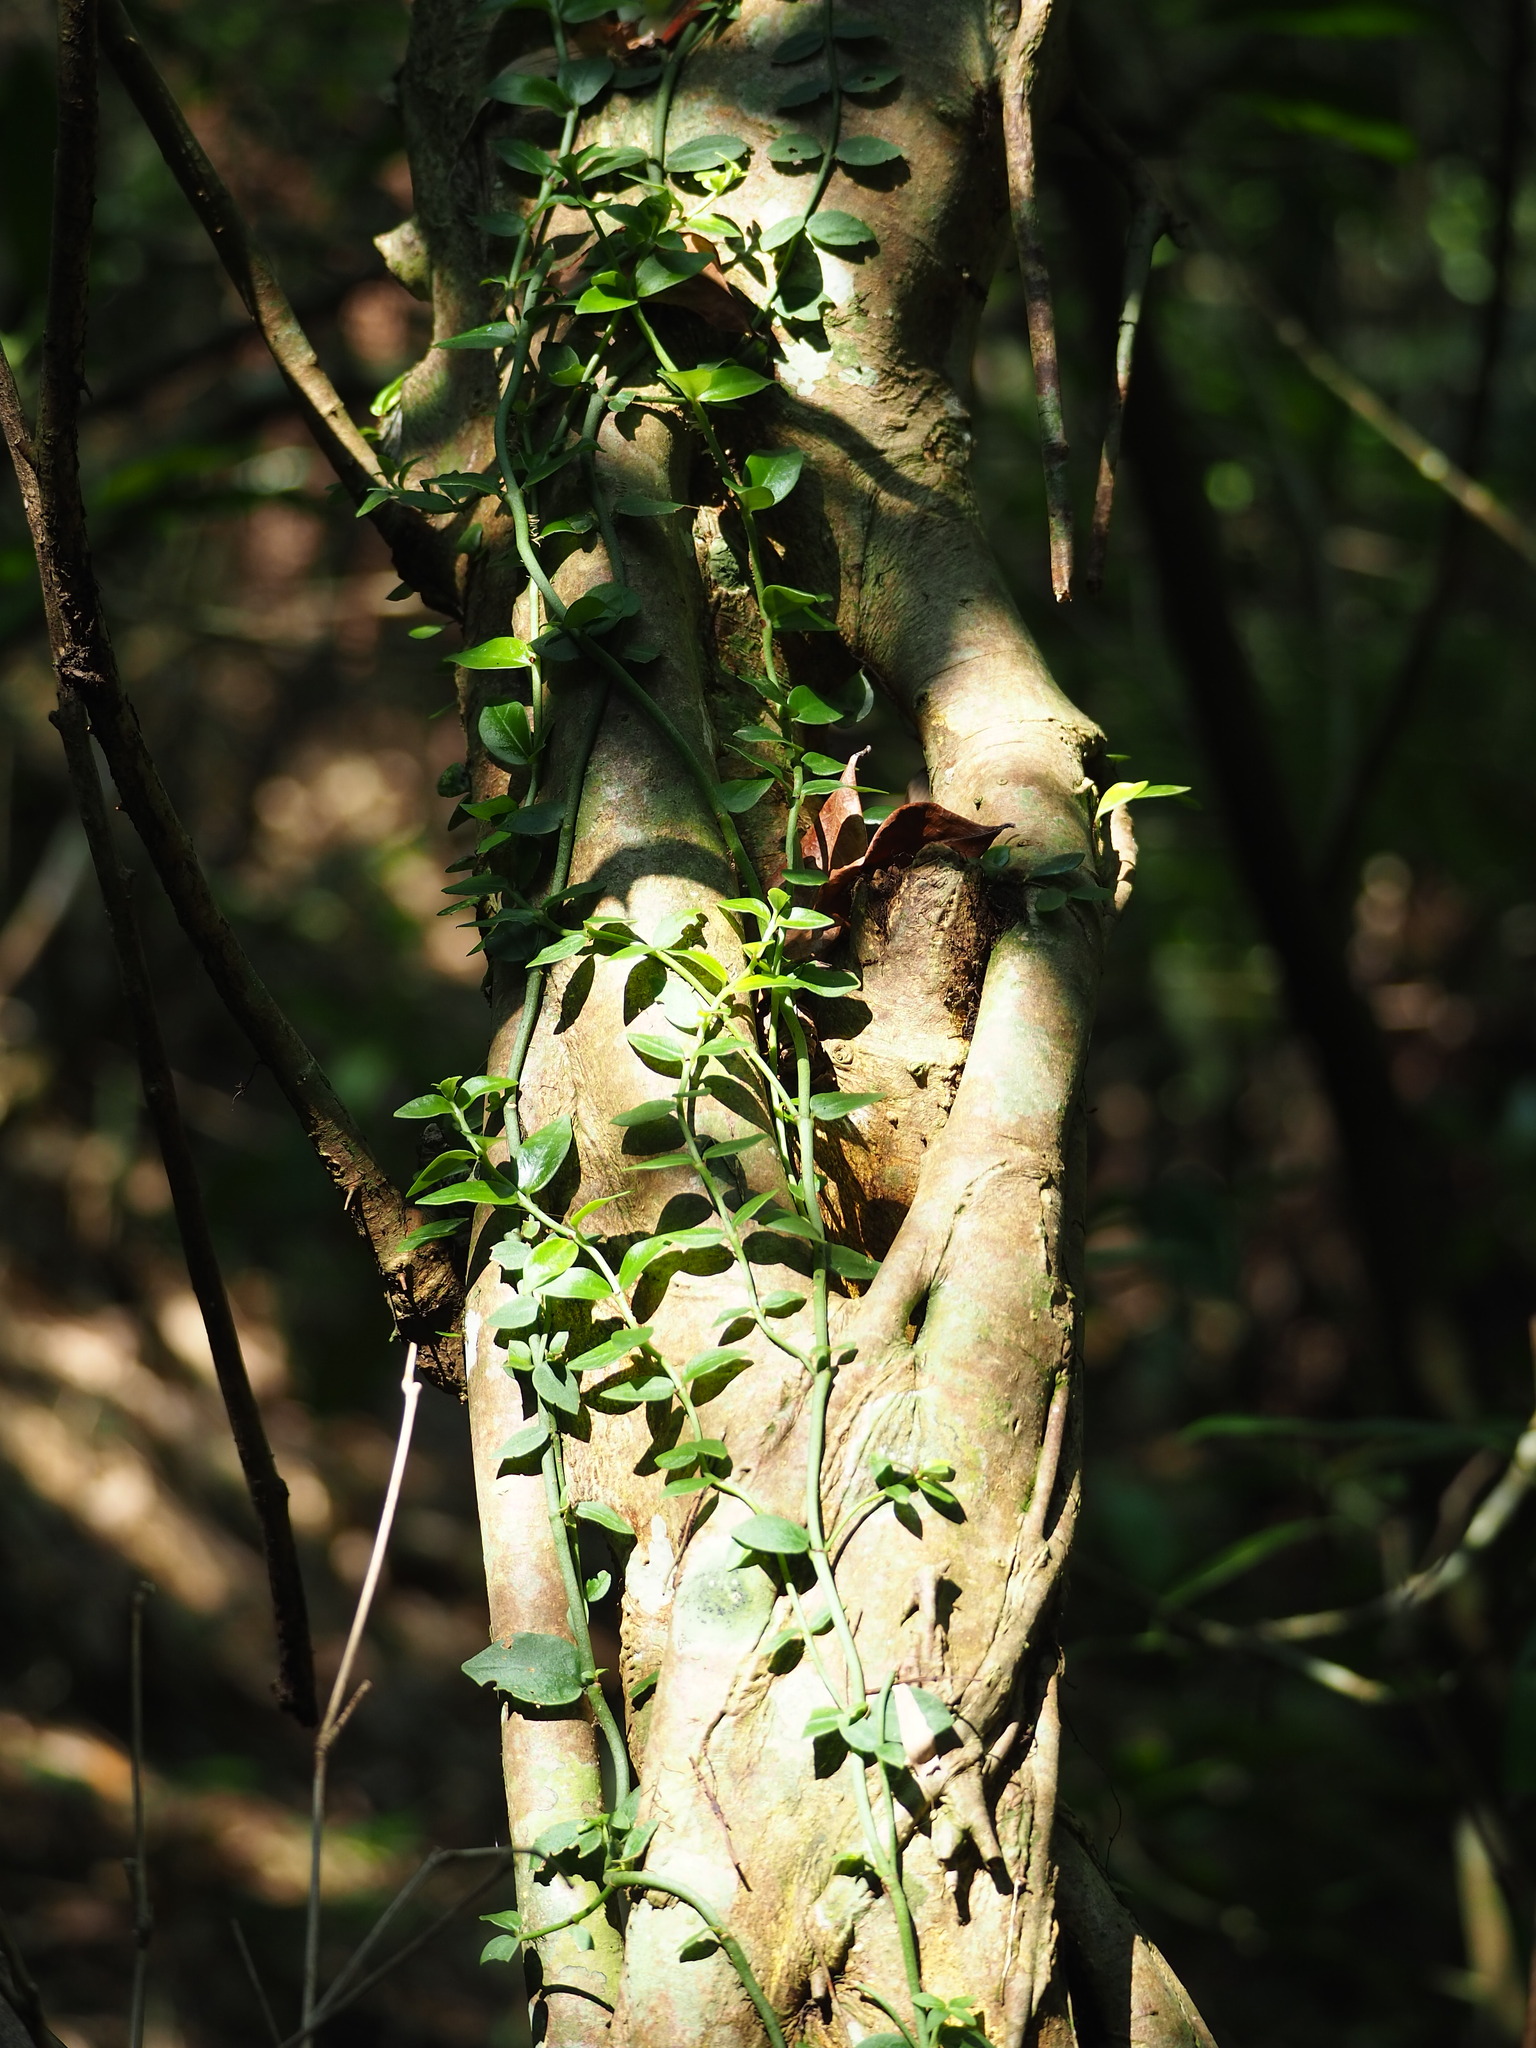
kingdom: Plantae
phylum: Tracheophyta
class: Magnoliopsida
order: Gentianales
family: Rubiaceae
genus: Psychotria
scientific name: Psychotria serpens
